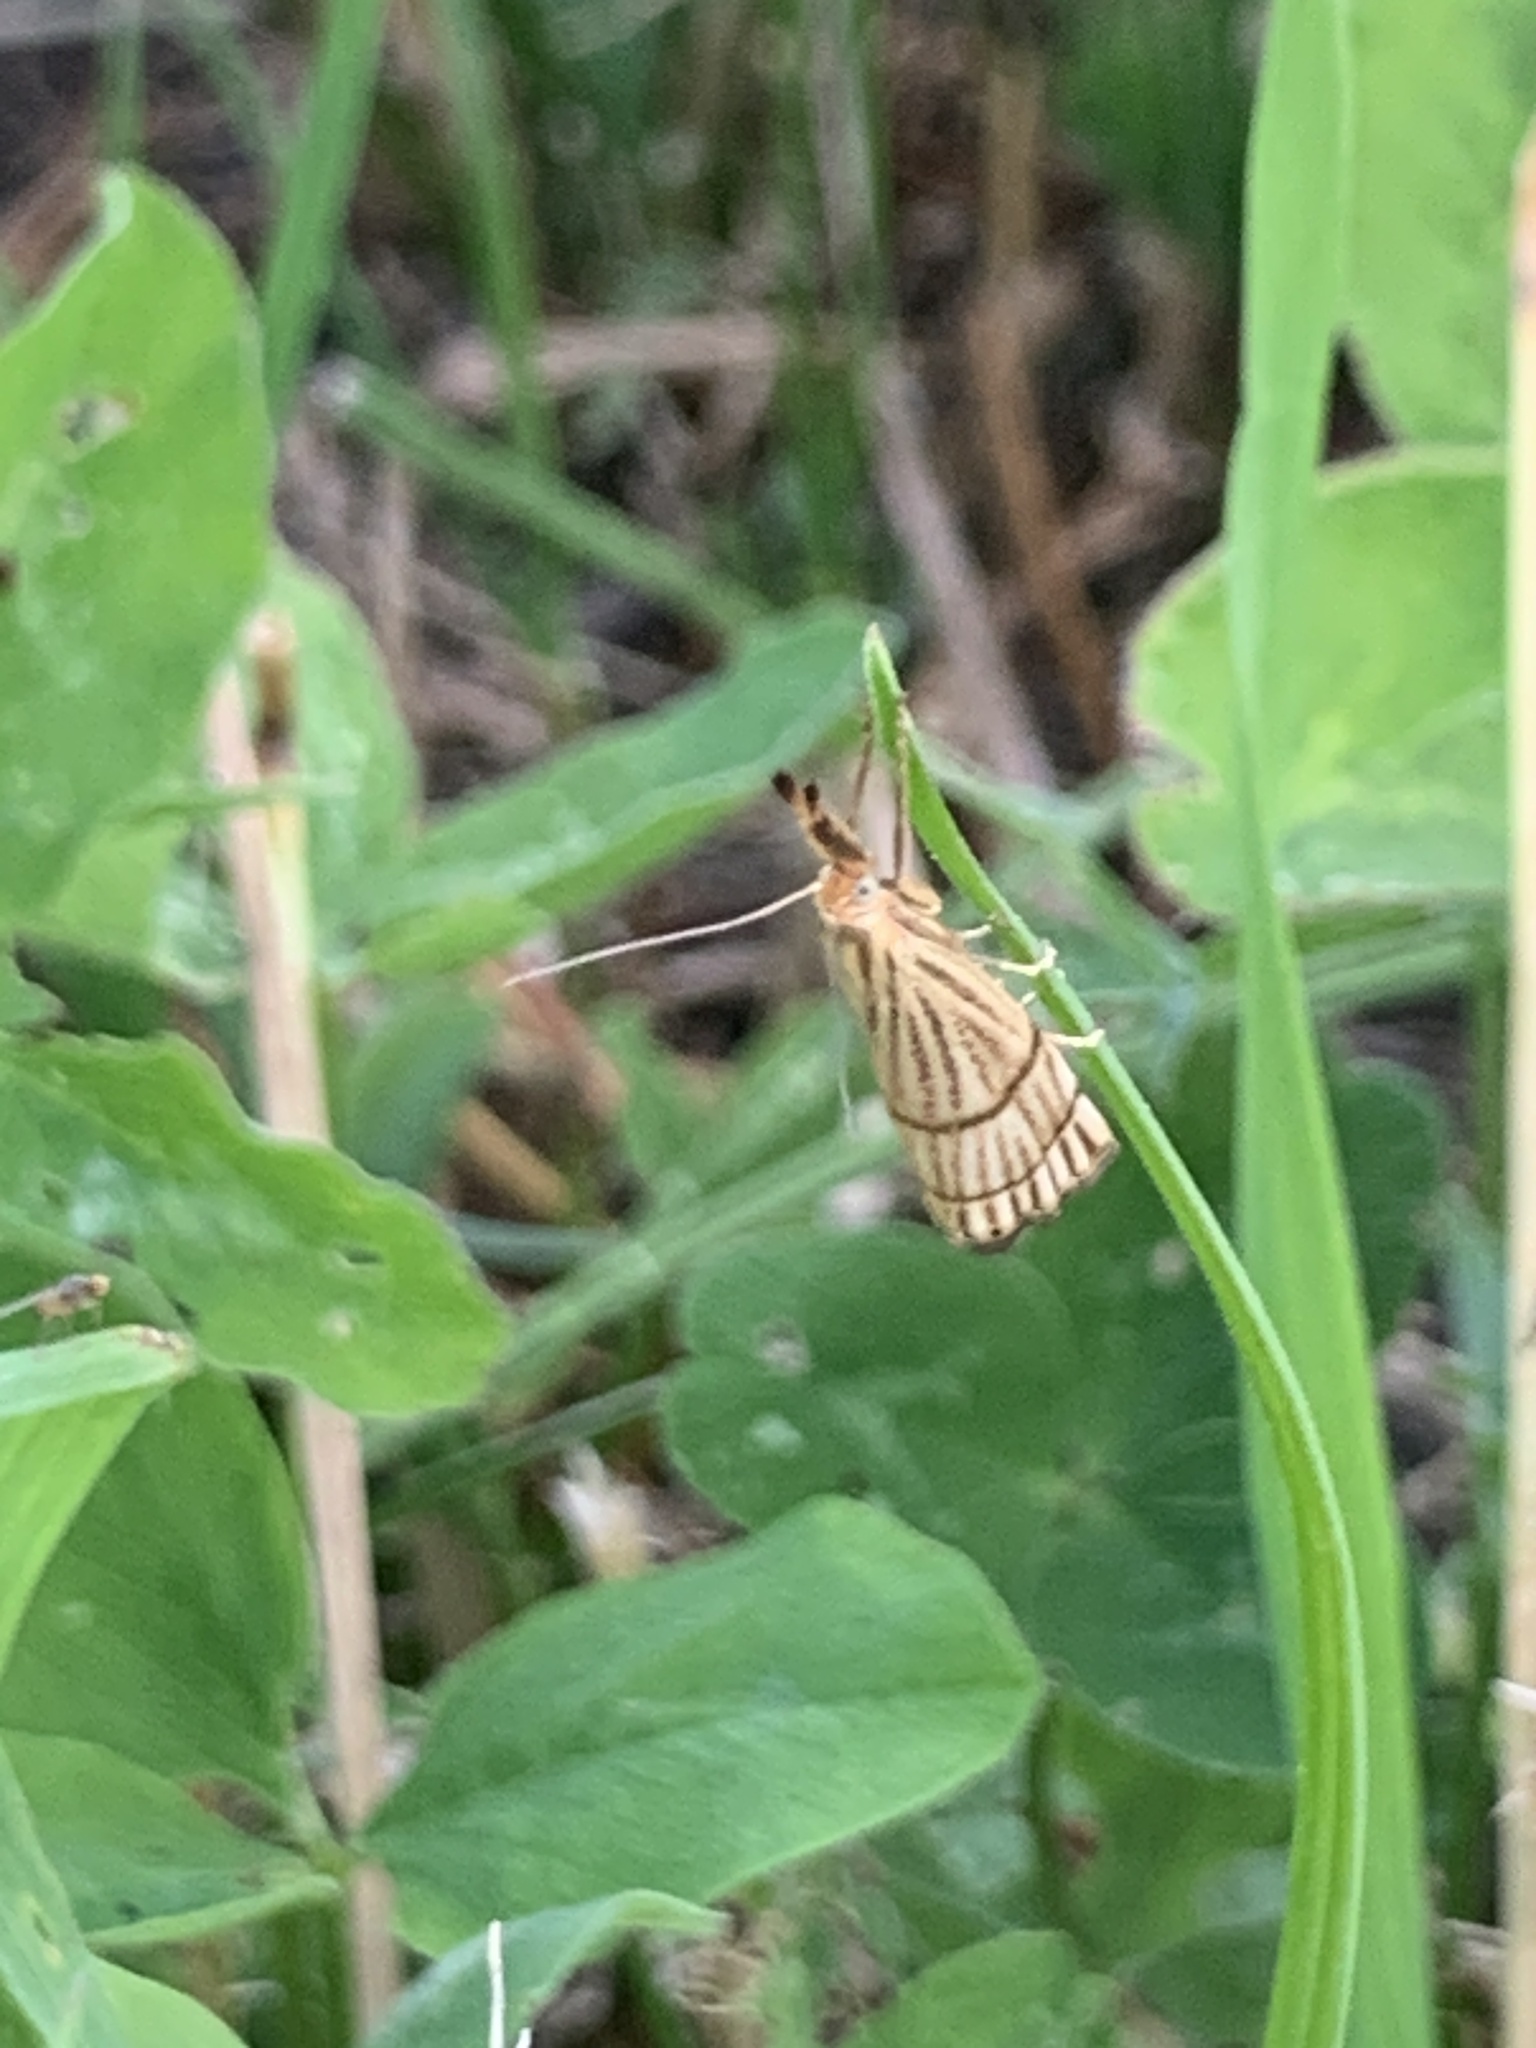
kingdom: Animalia
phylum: Arthropoda
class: Insecta
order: Lepidoptera
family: Crambidae
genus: Chrysocrambus
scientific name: Chrysocrambus linetella
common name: Orange-bar grass-veneer
